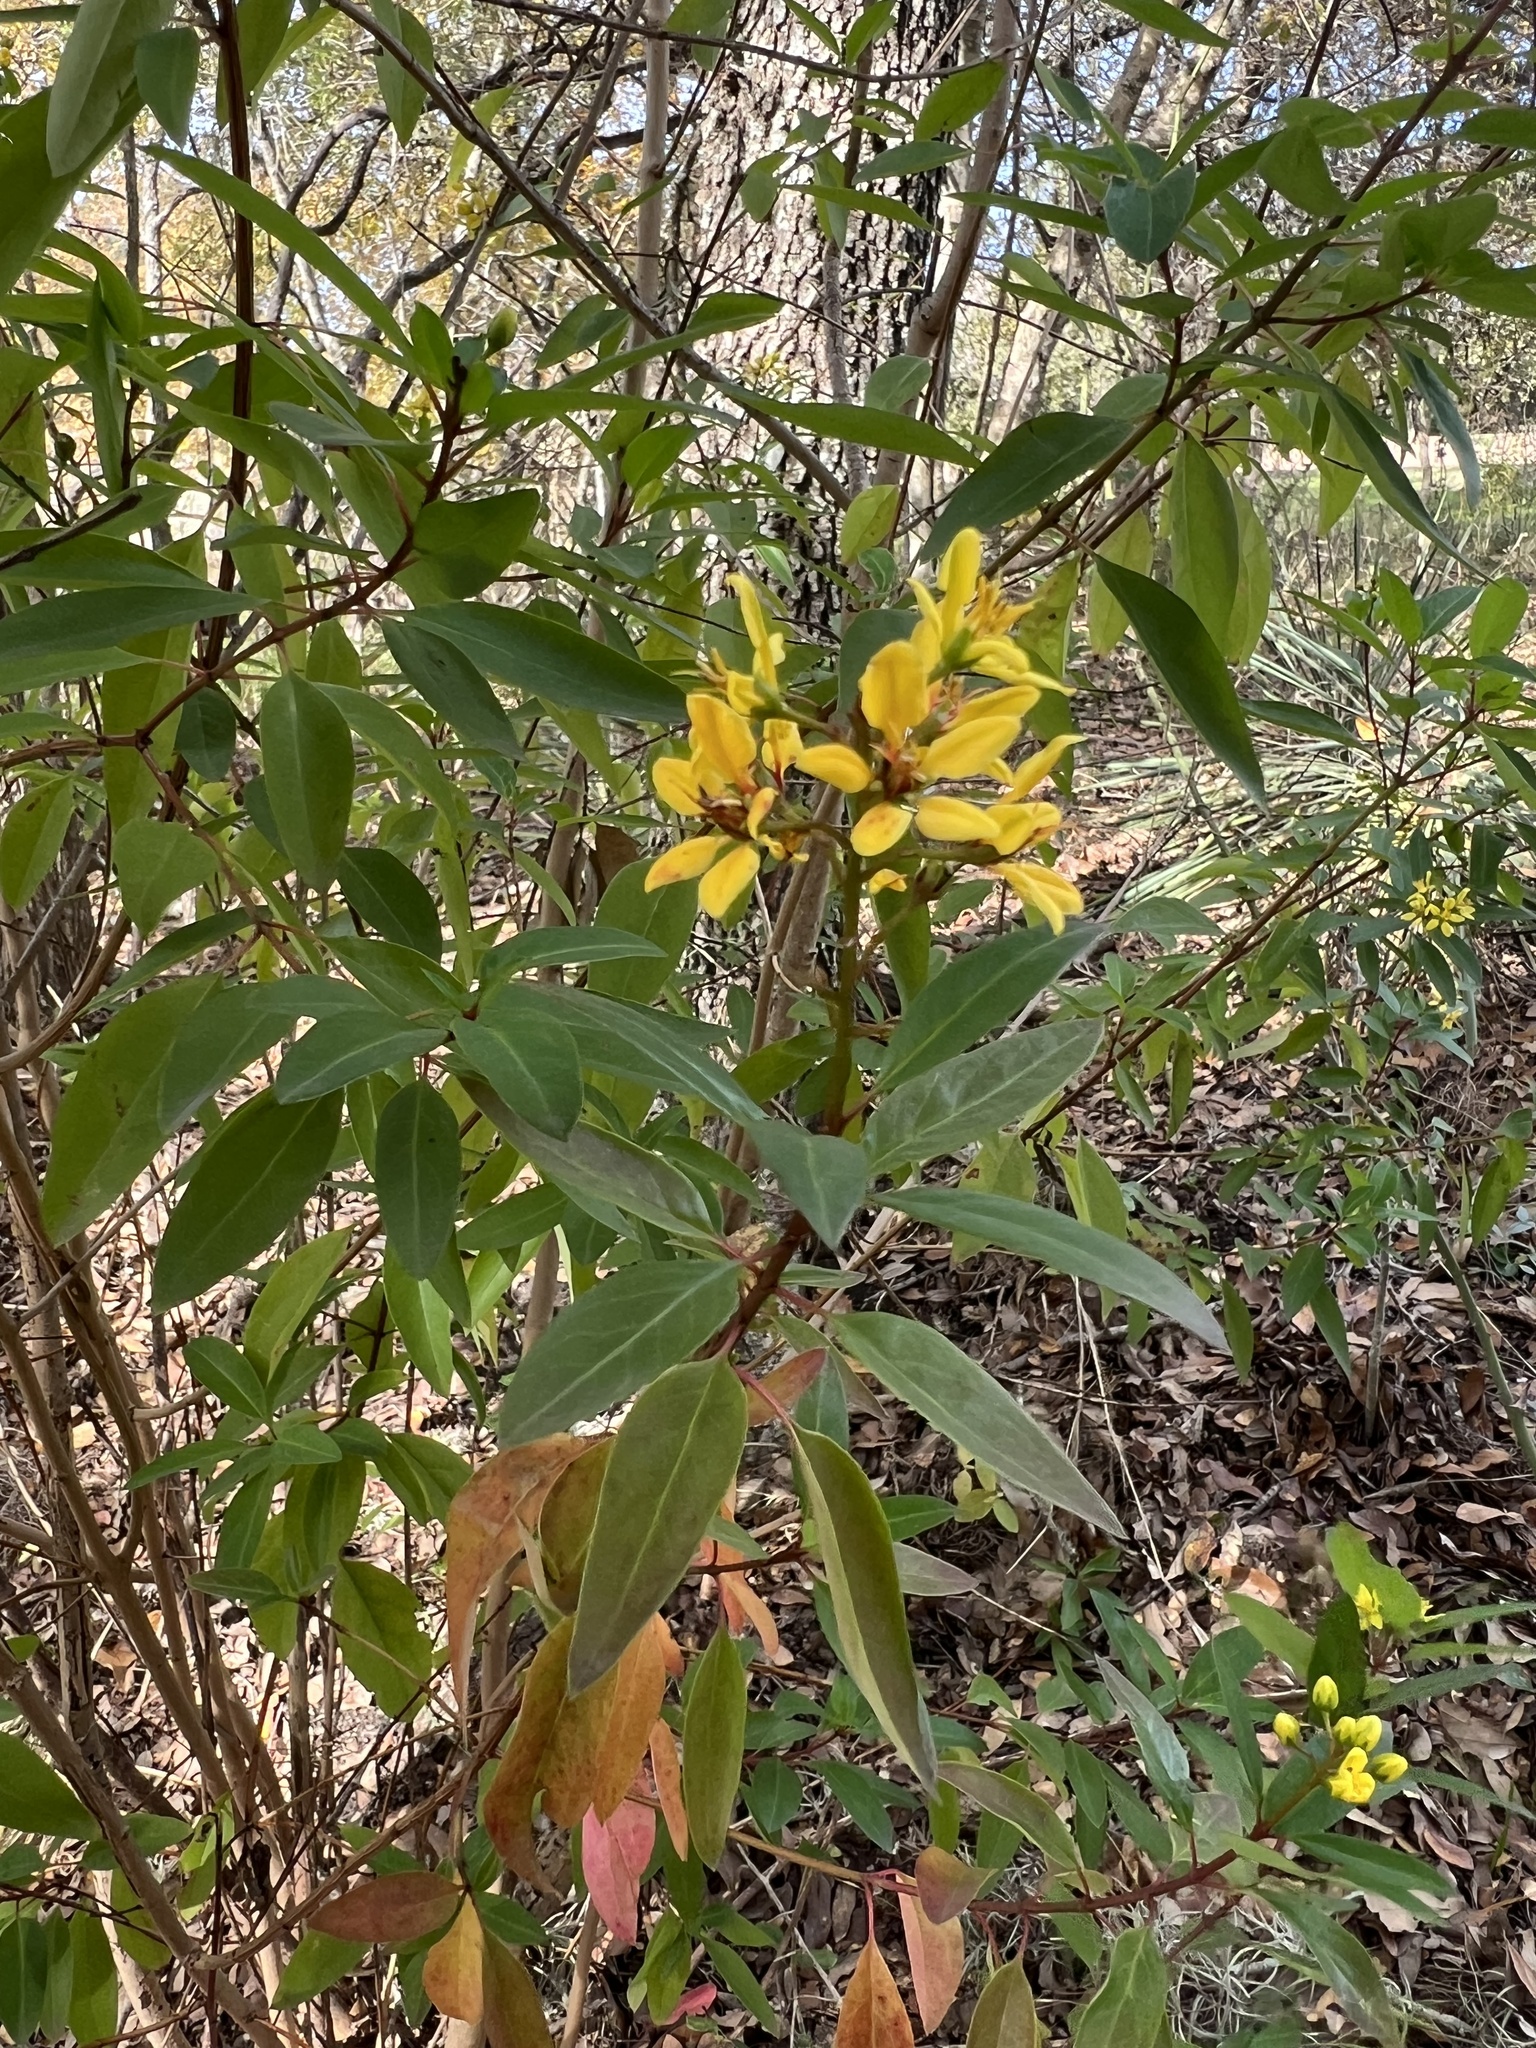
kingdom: Plantae
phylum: Tracheophyta
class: Magnoliopsida
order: Malpighiales
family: Malpighiaceae
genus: Galphimia
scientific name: Galphimia gracilis
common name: Slender goldshower
